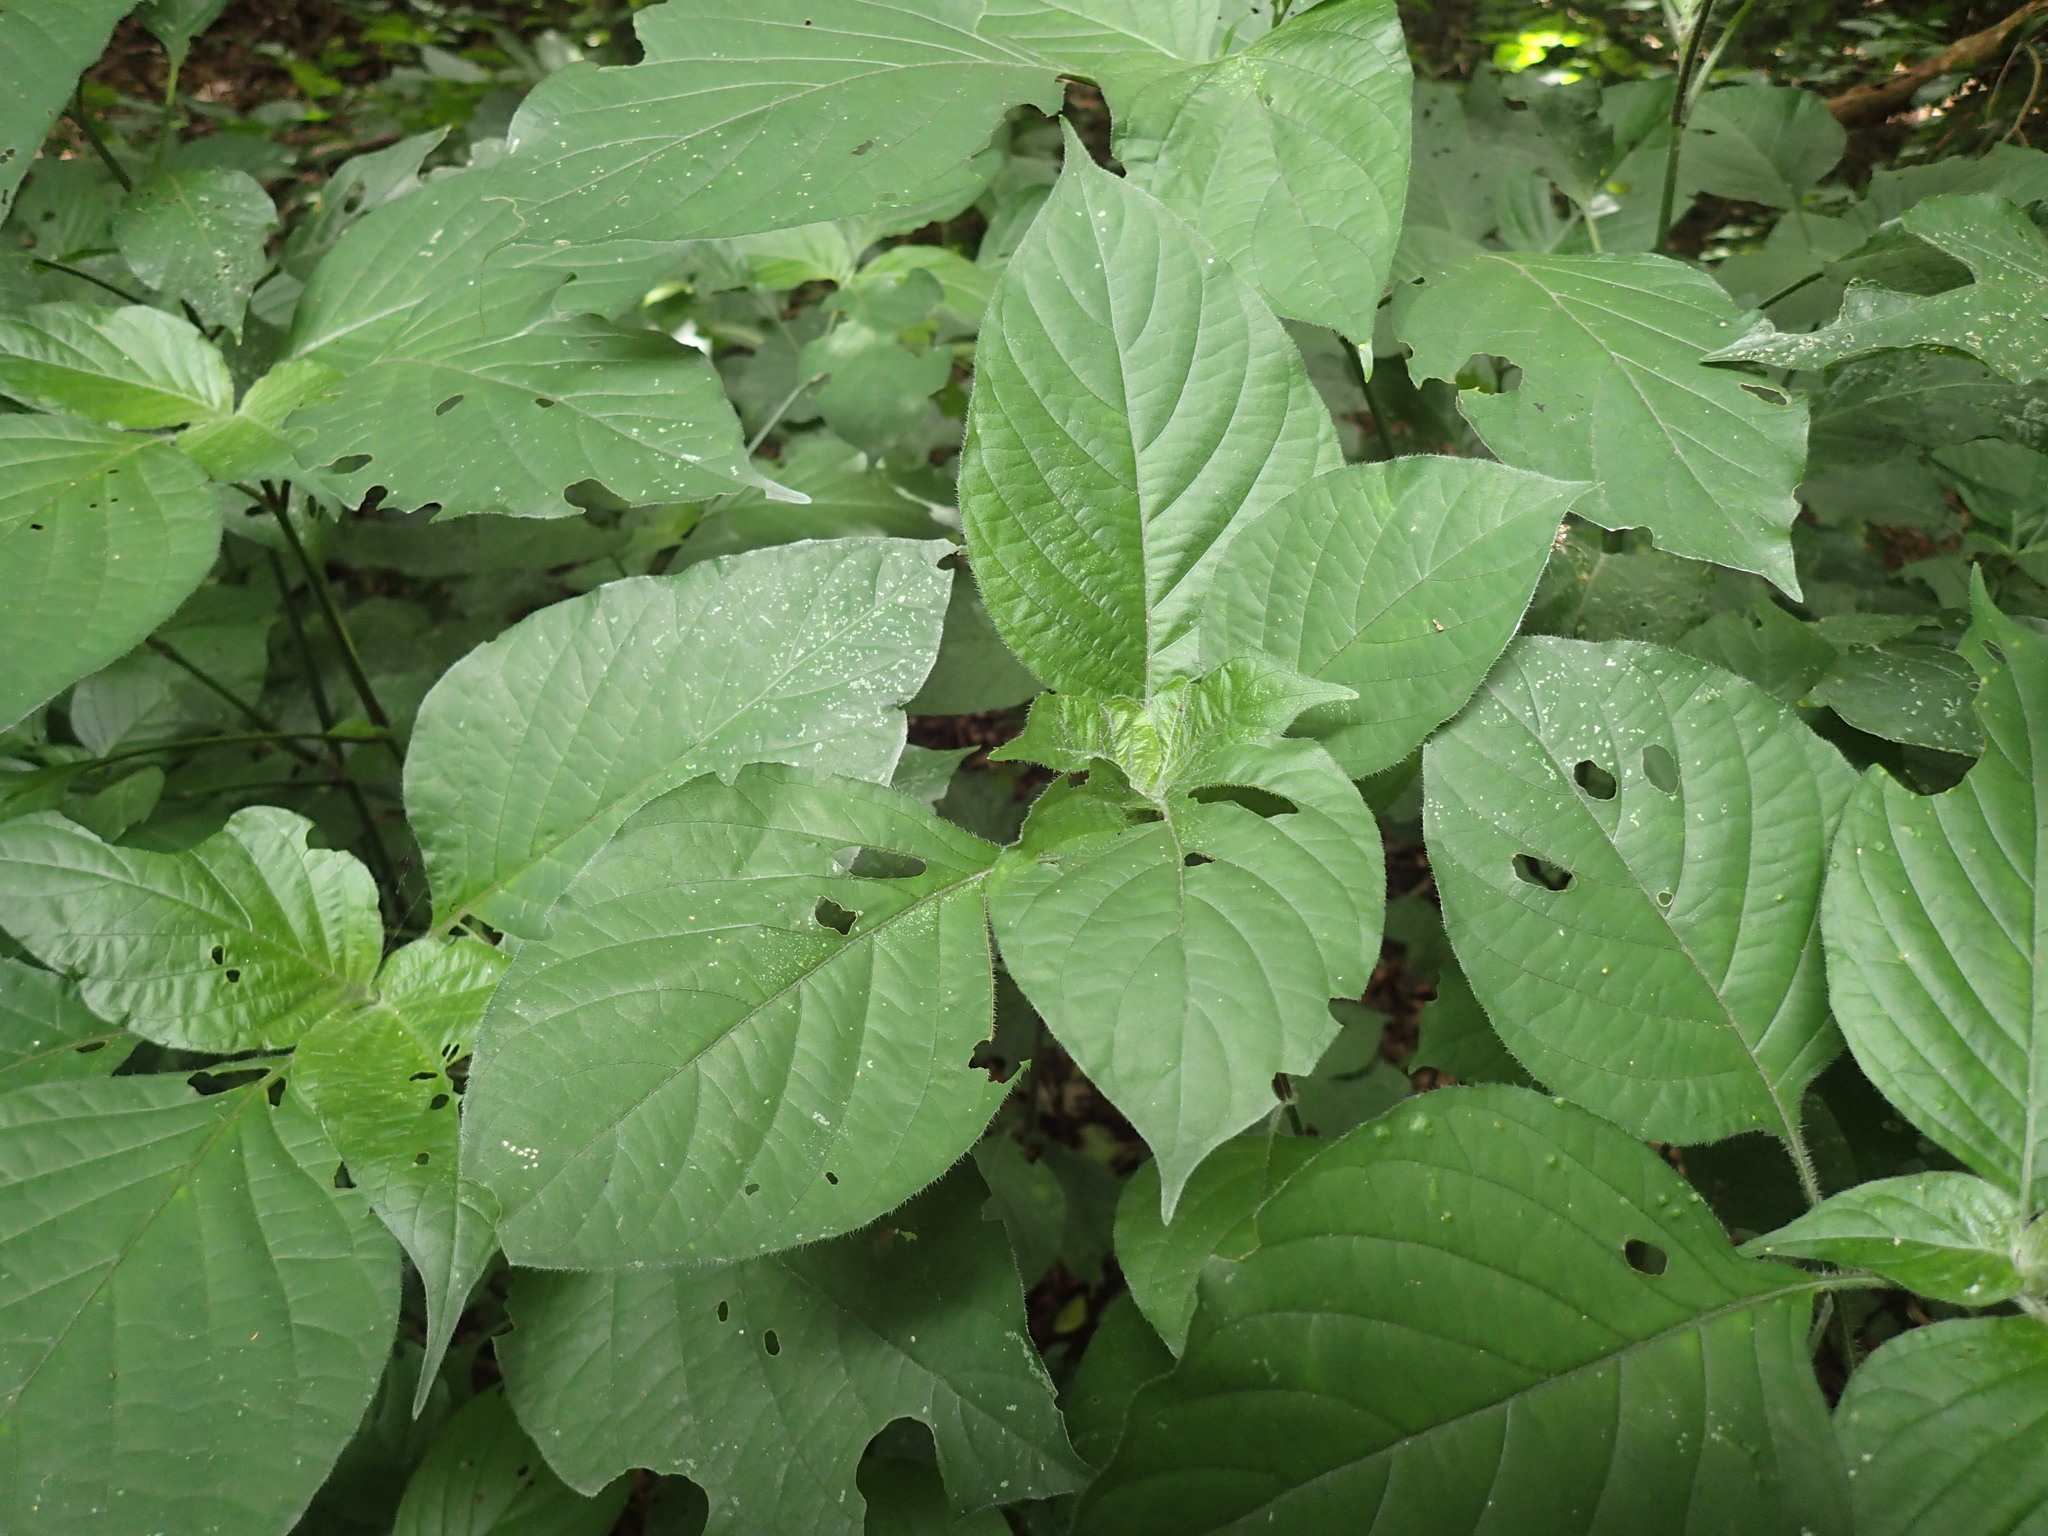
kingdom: Plantae
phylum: Tracheophyta
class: Magnoliopsida
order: Lamiales
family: Acanthaceae
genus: Isoglossa
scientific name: Isoglossa woodii
